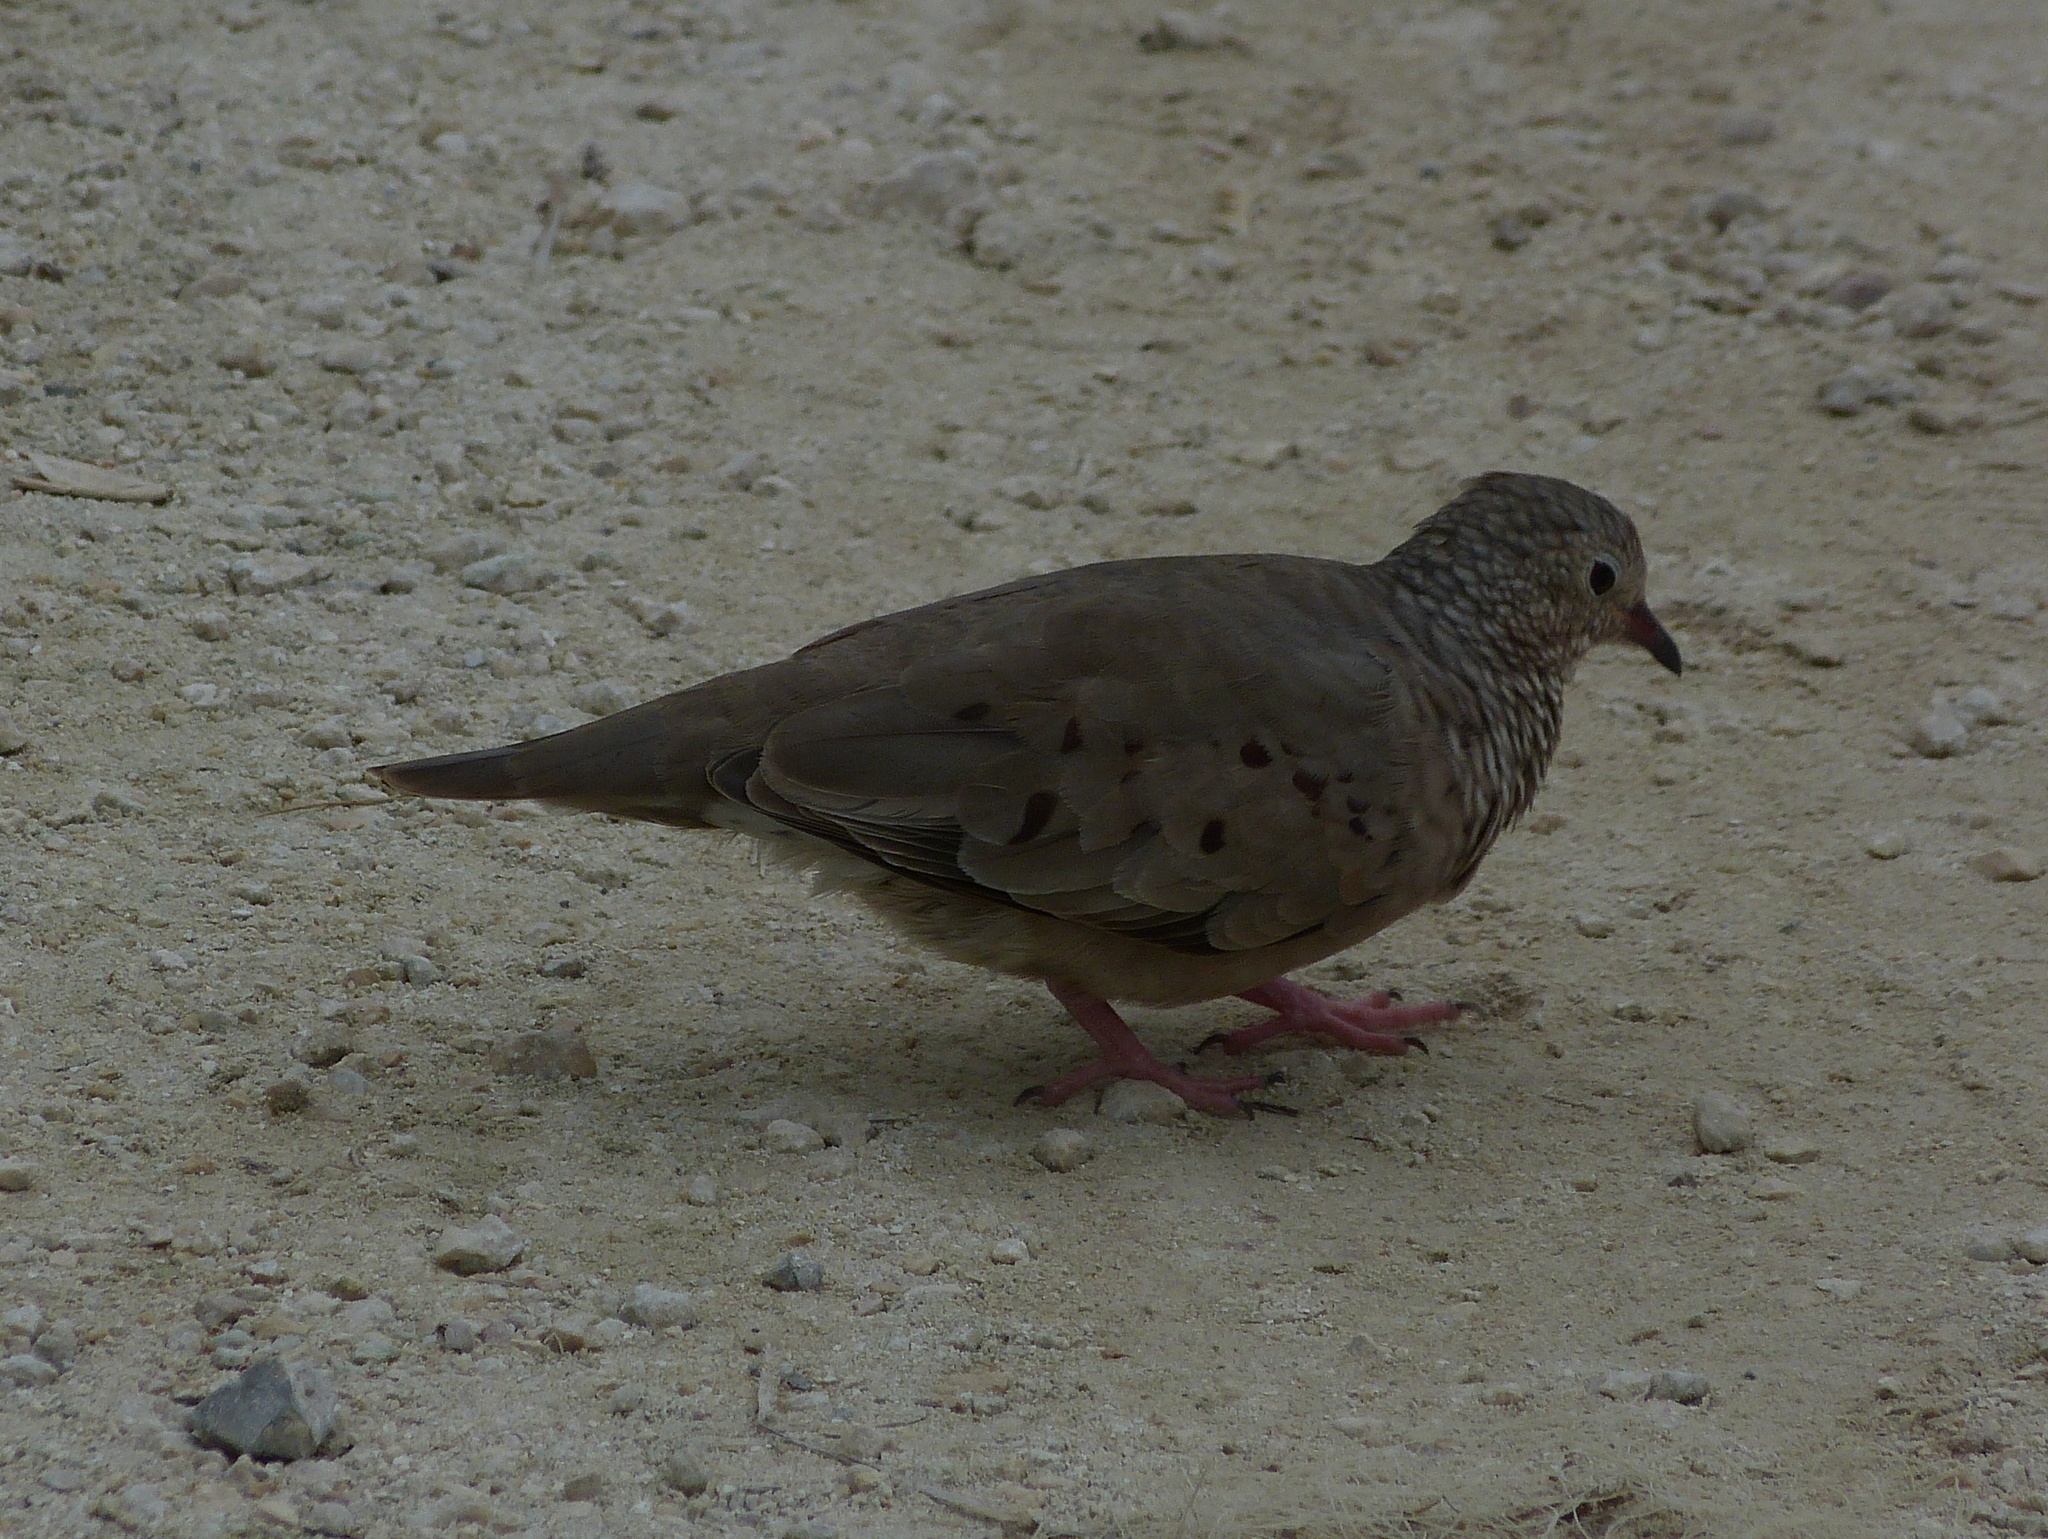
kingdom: Animalia
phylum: Chordata
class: Aves
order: Columbiformes
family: Columbidae
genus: Columbina
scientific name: Columbina passerina
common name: Common ground-dove
